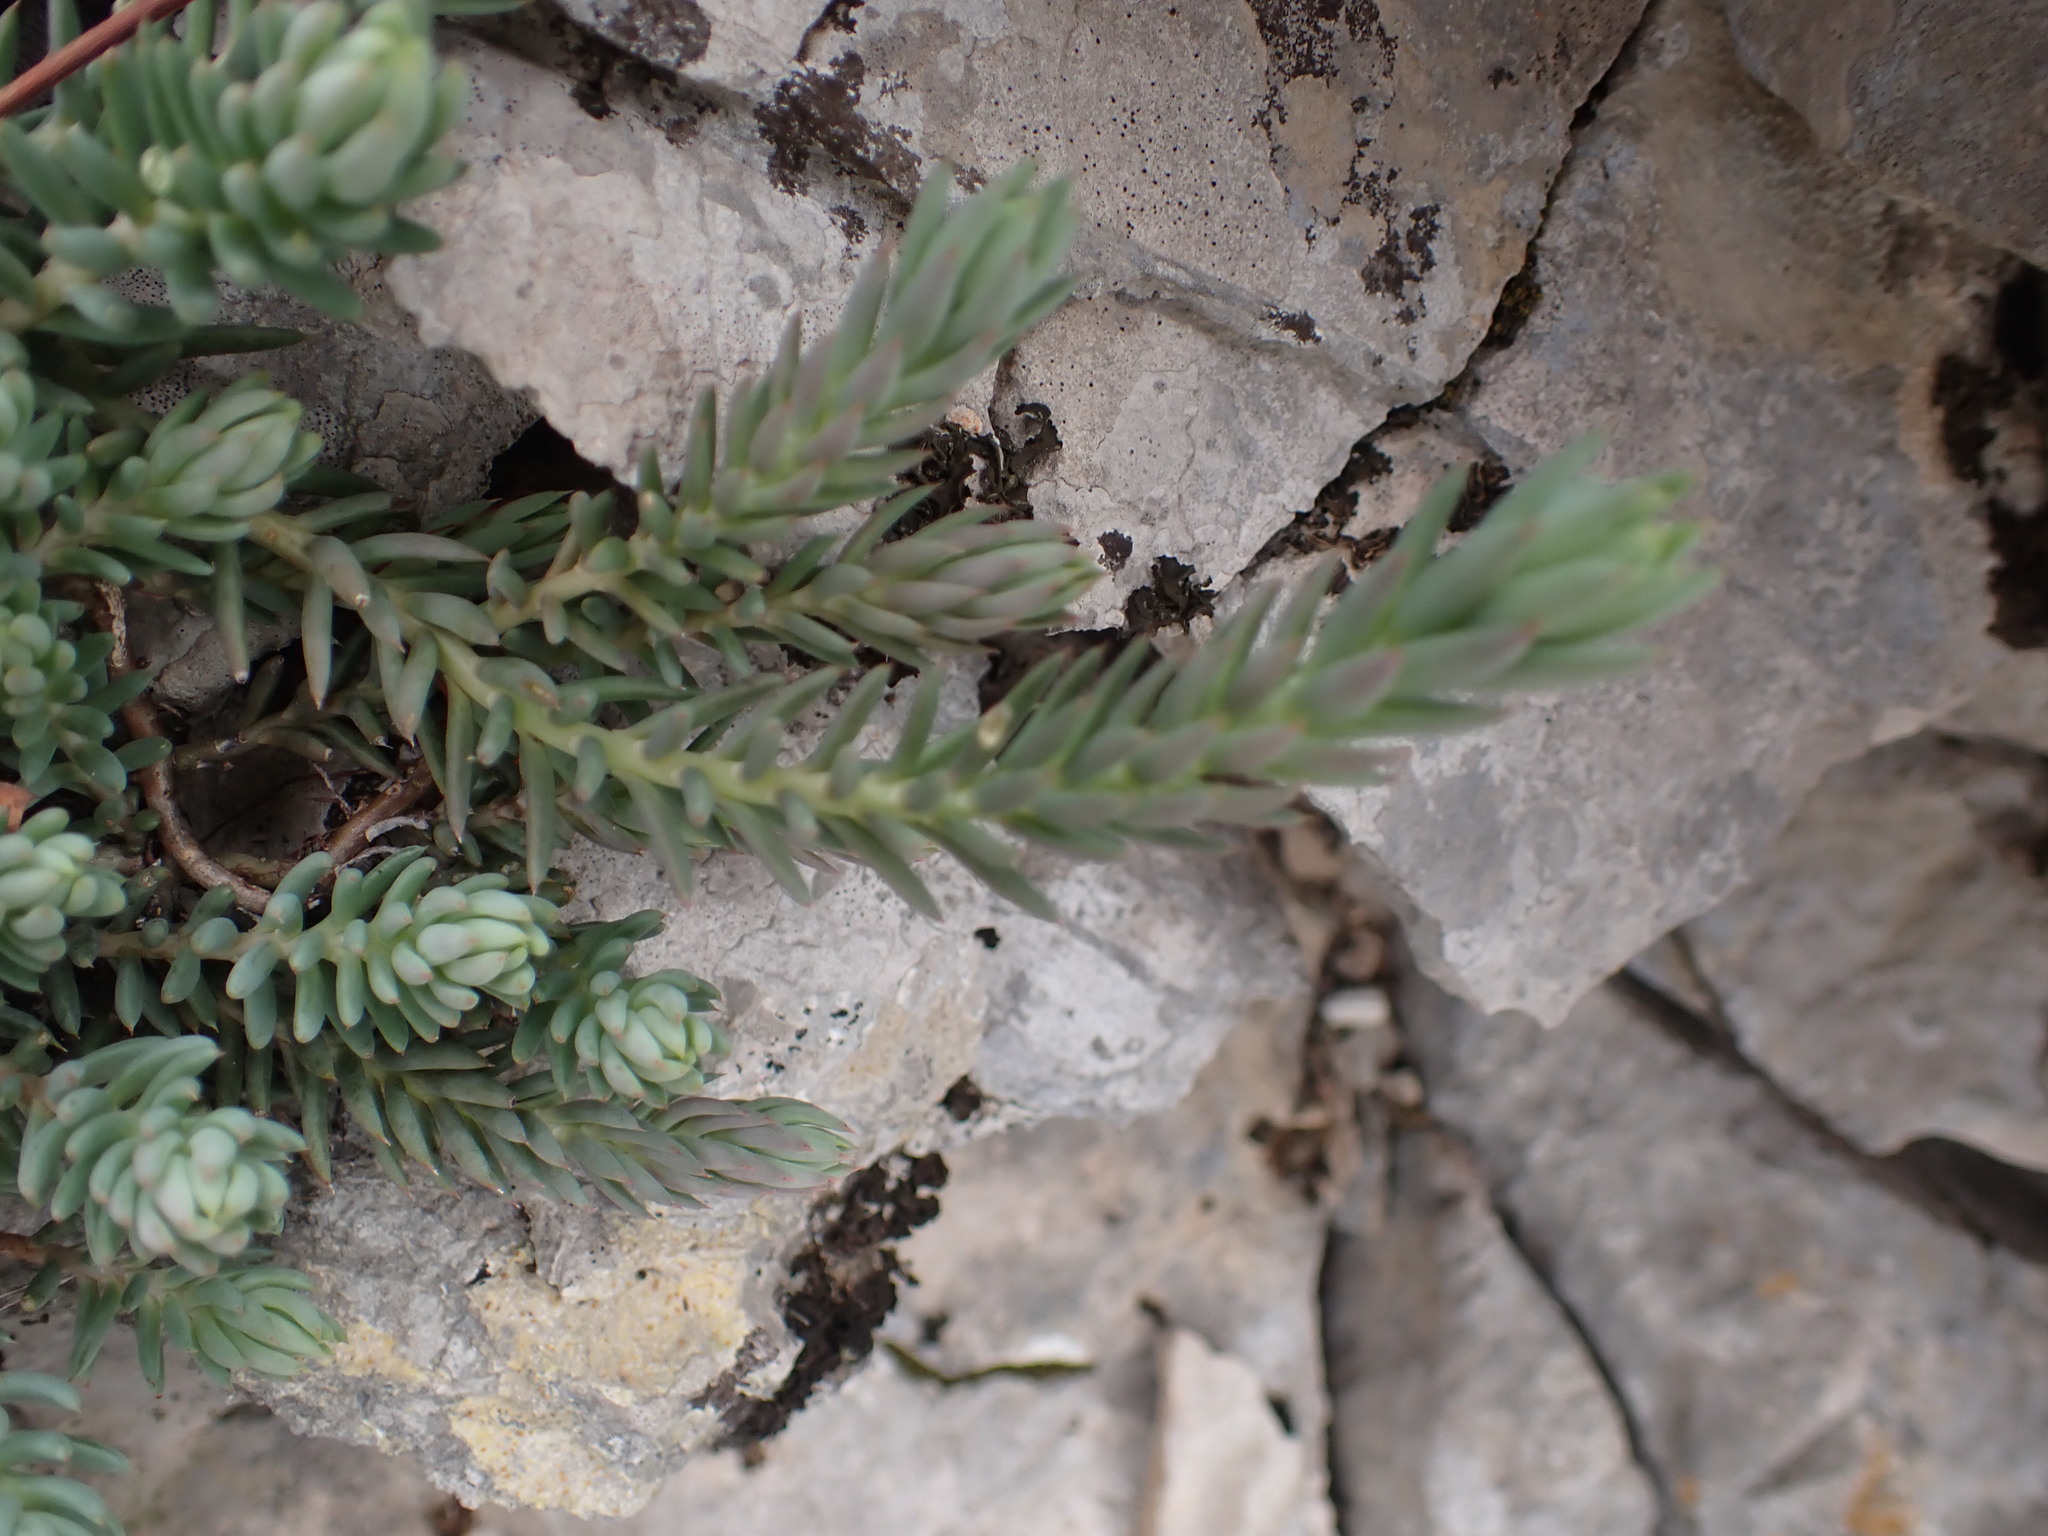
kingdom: Plantae
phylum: Tracheophyta
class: Magnoliopsida
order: Saxifragales
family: Crassulaceae
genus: Petrosedum
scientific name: Petrosedum sediforme
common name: Pale stonecrop
